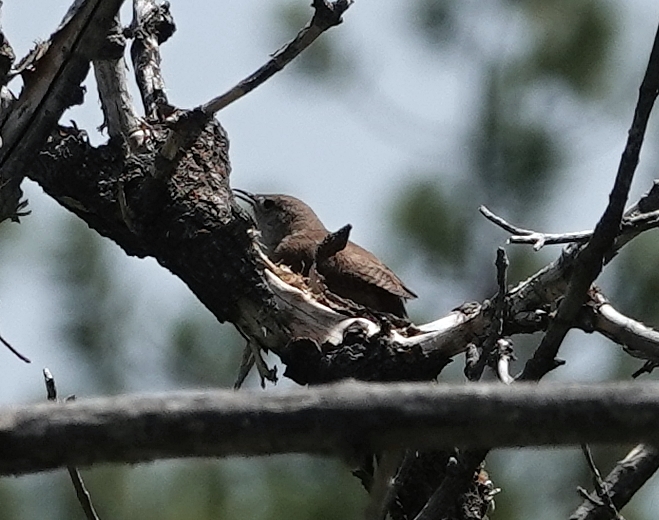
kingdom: Animalia
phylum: Chordata
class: Aves
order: Passeriformes
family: Troglodytidae
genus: Troglodytes
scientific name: Troglodytes aedon
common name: House wren
